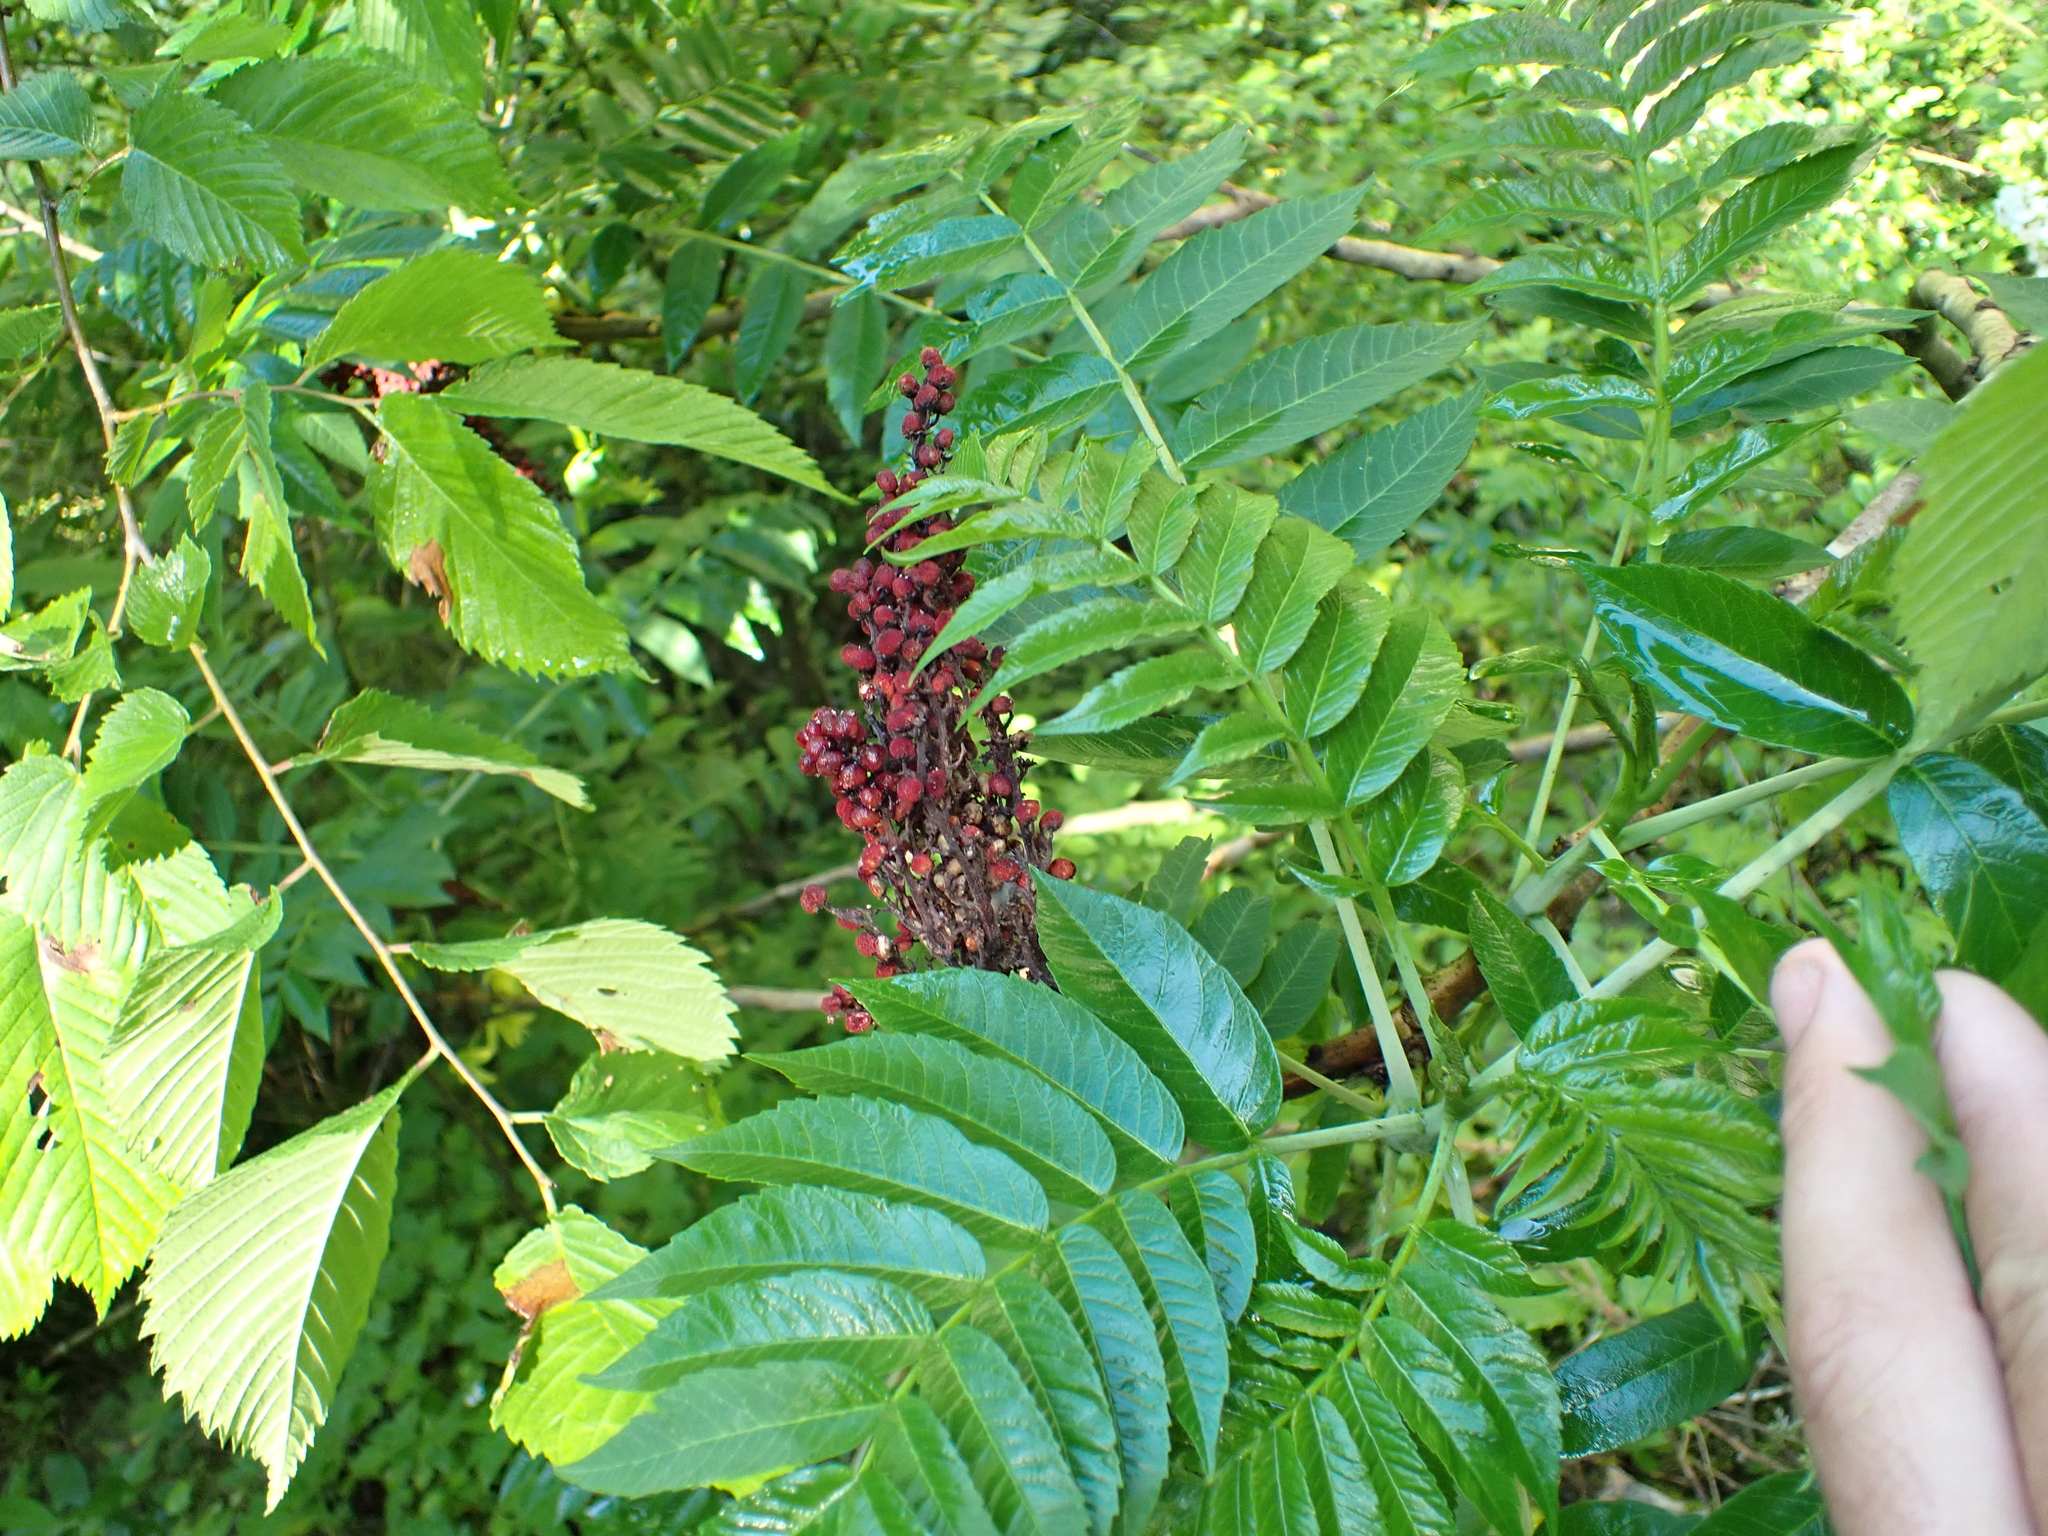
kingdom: Plantae
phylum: Tracheophyta
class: Magnoliopsida
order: Sapindales
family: Anacardiaceae
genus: Rhus
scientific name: Rhus glabra
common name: Scarlet sumac
